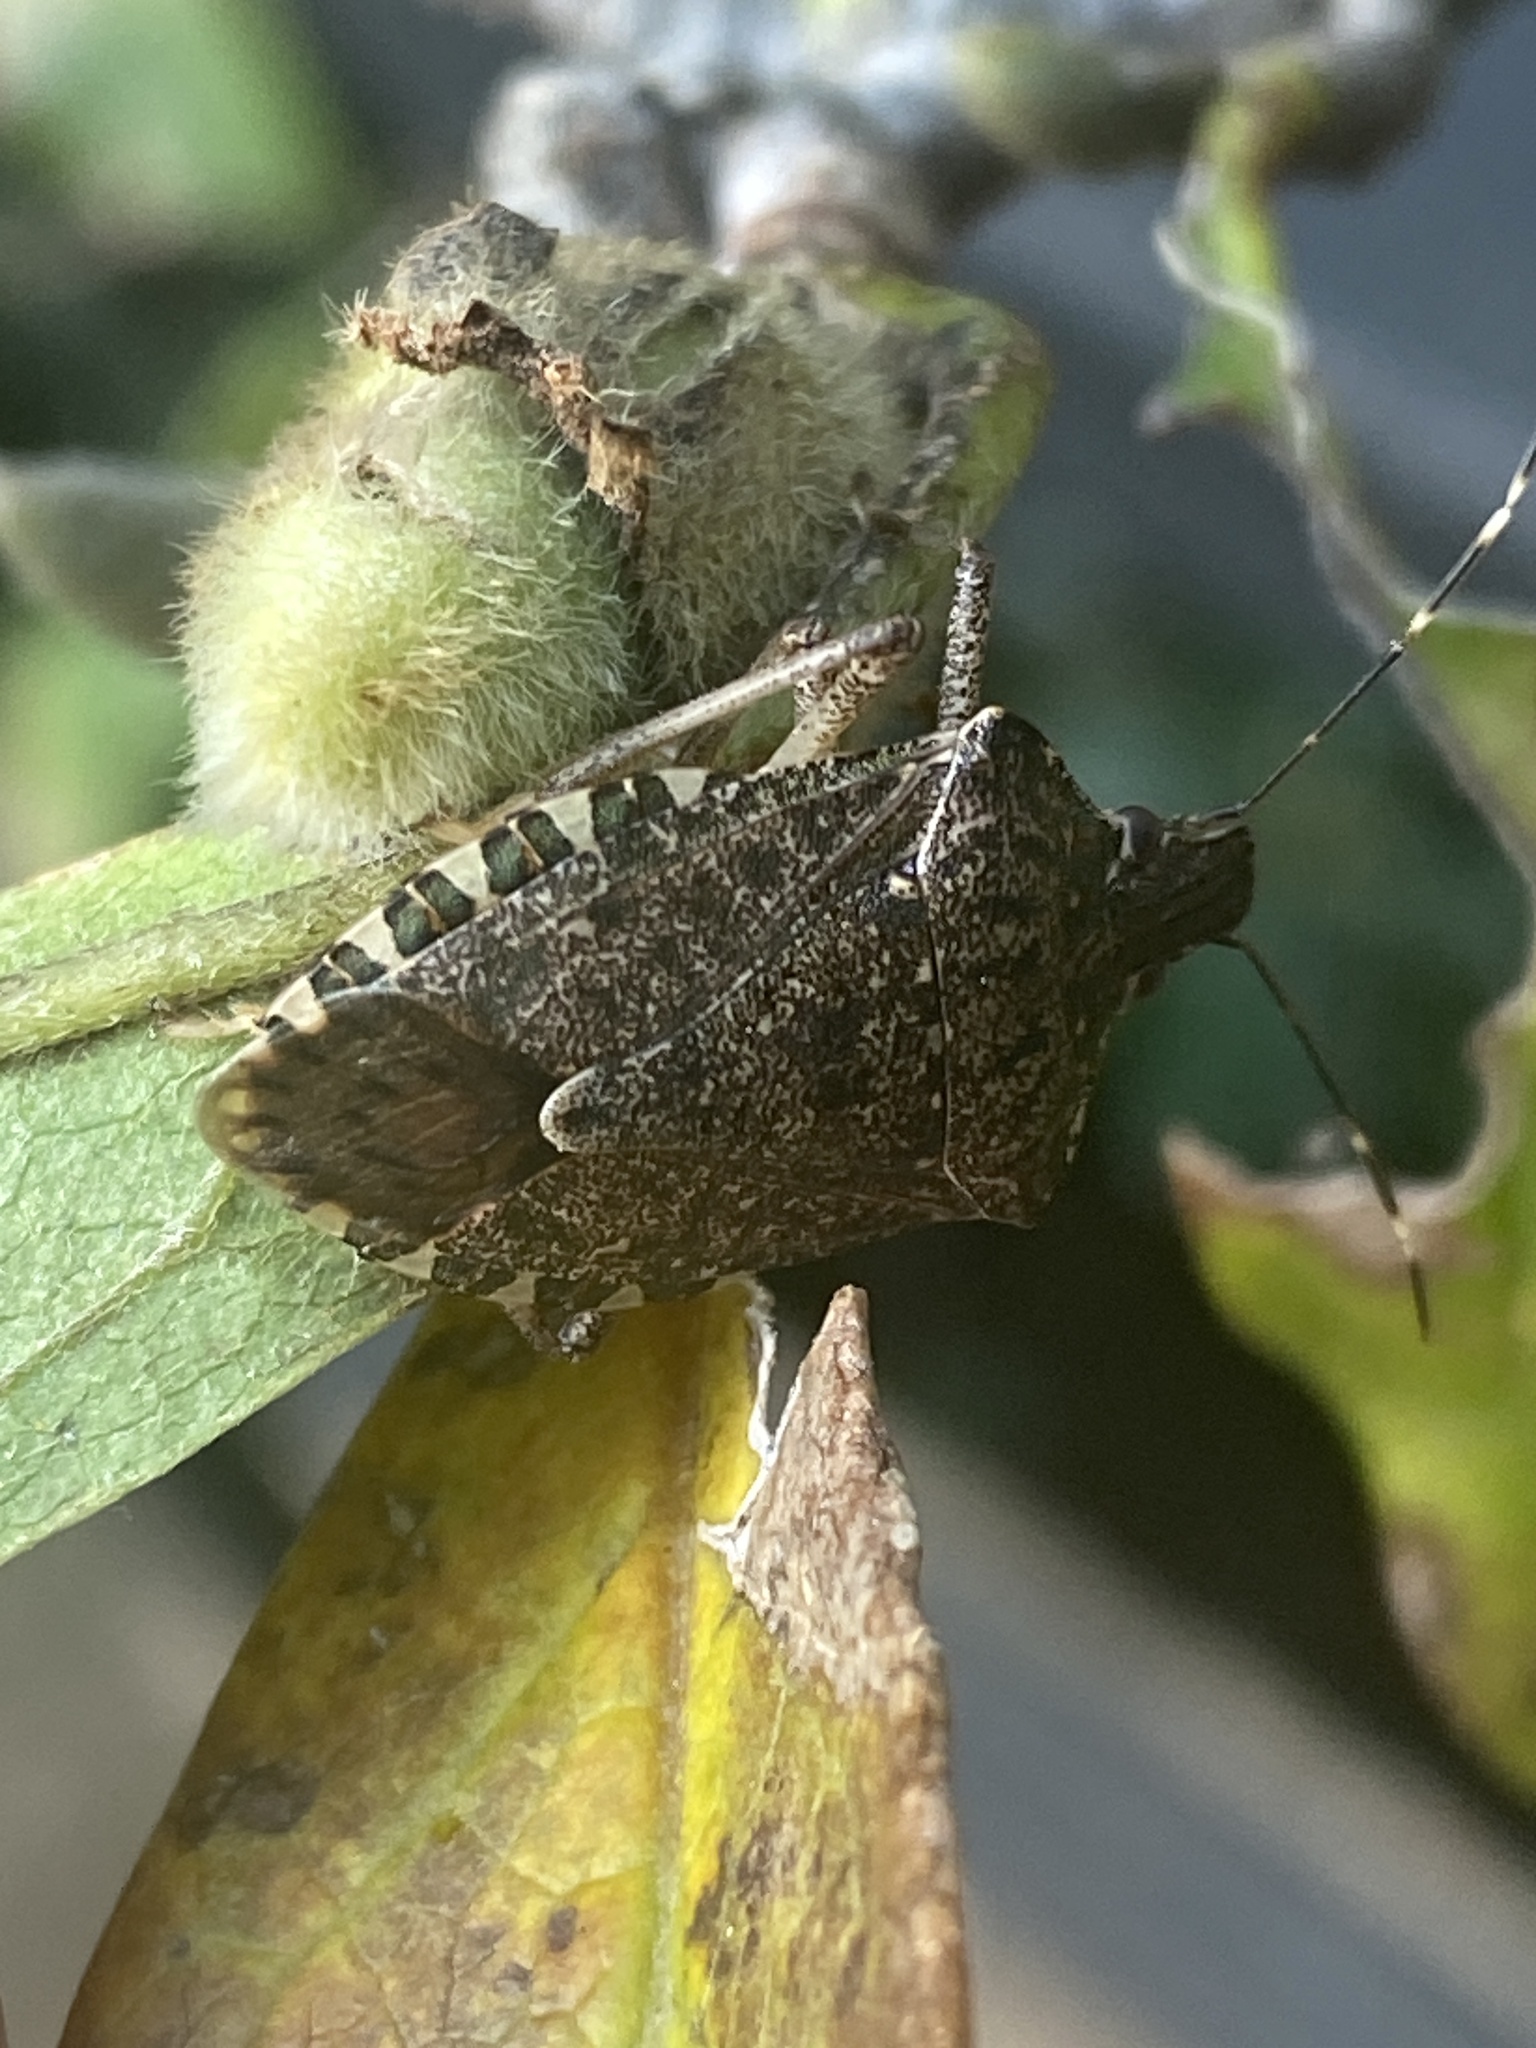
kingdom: Animalia
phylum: Arthropoda
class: Insecta
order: Hemiptera
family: Pentatomidae
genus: Halyomorpha
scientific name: Halyomorpha halys
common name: Brown marmorated stink bug
